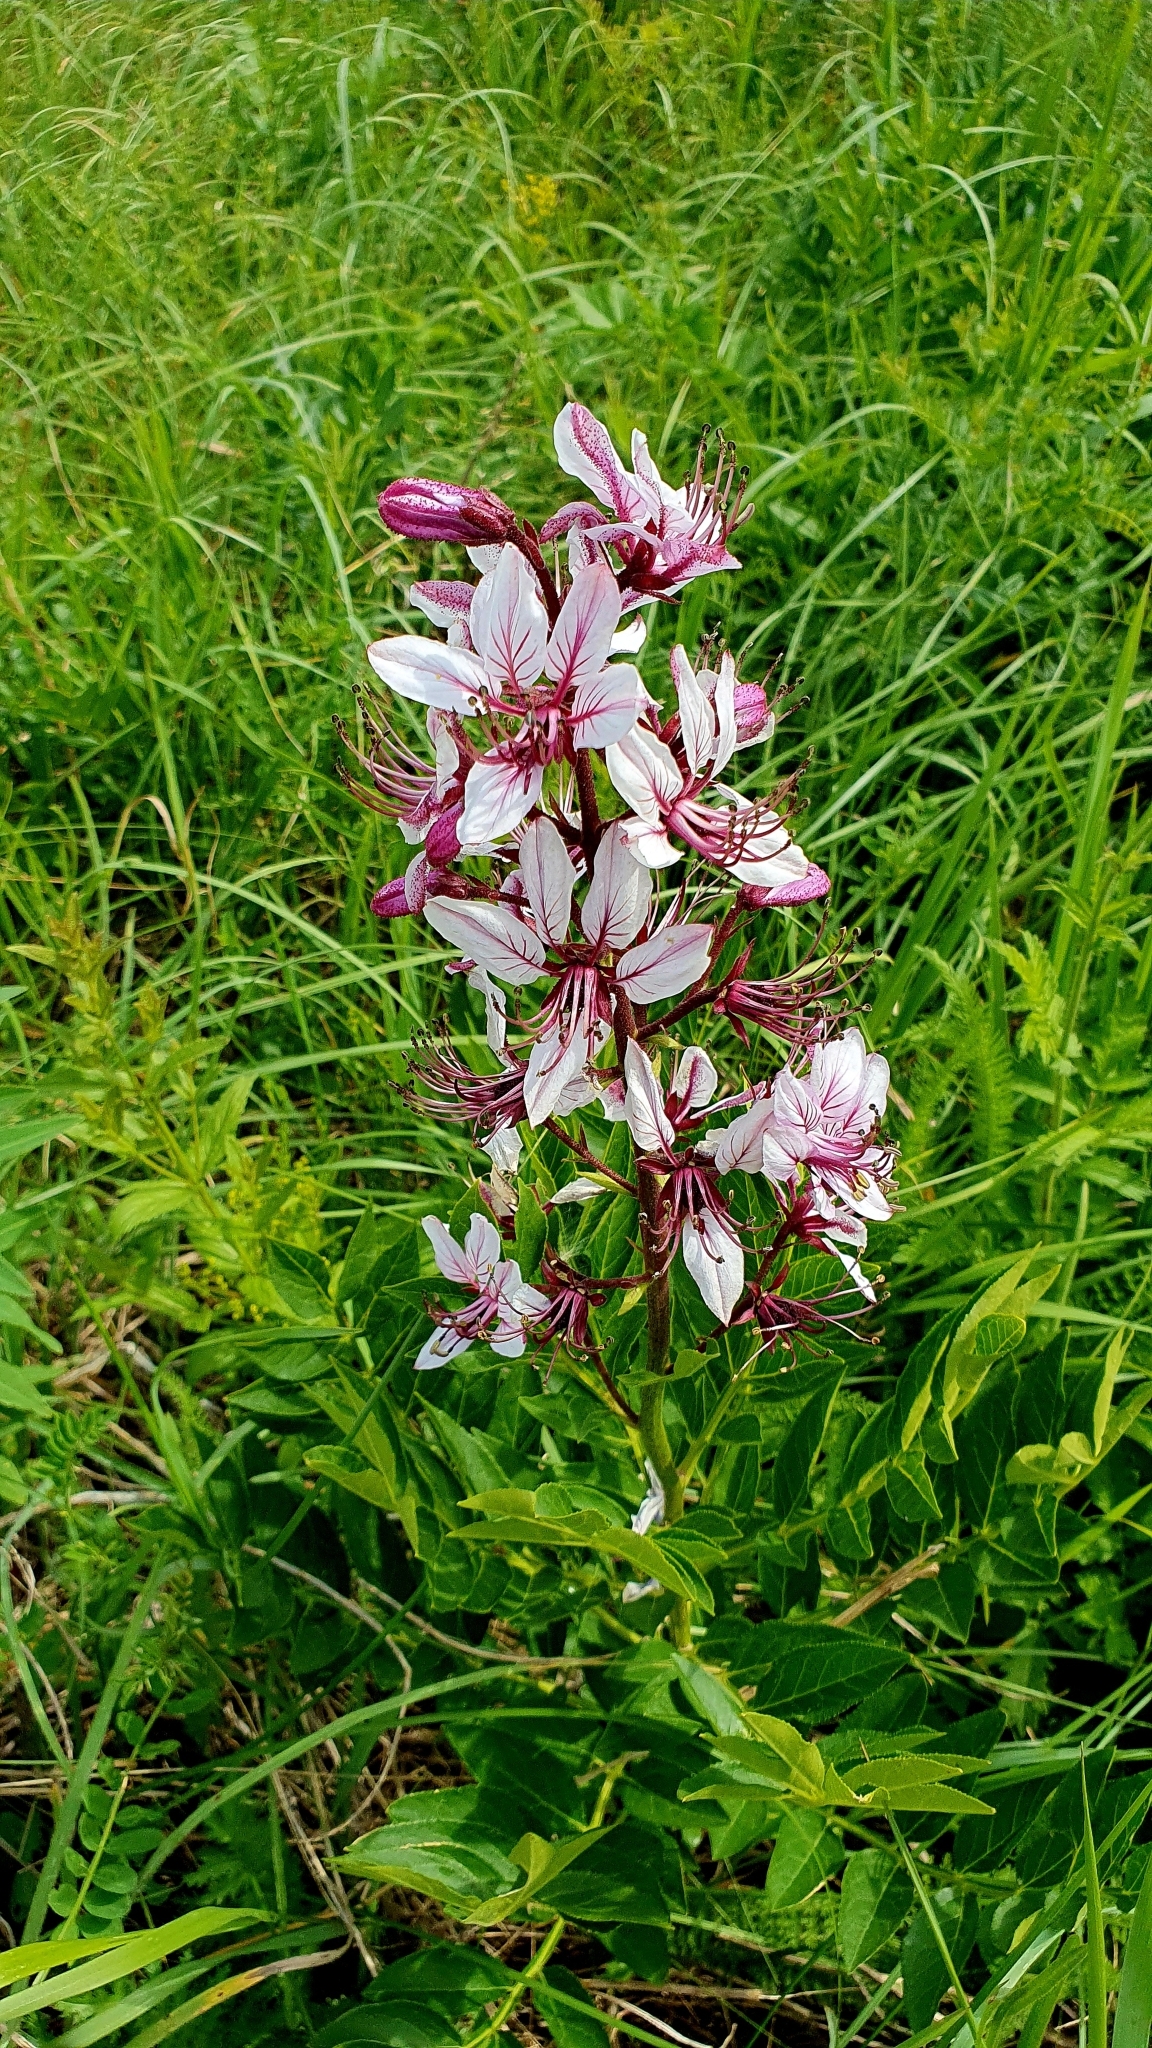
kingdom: Plantae
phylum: Tracheophyta
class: Magnoliopsida
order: Sapindales
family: Rutaceae
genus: Dictamnus
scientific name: Dictamnus albus
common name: Gasplant
